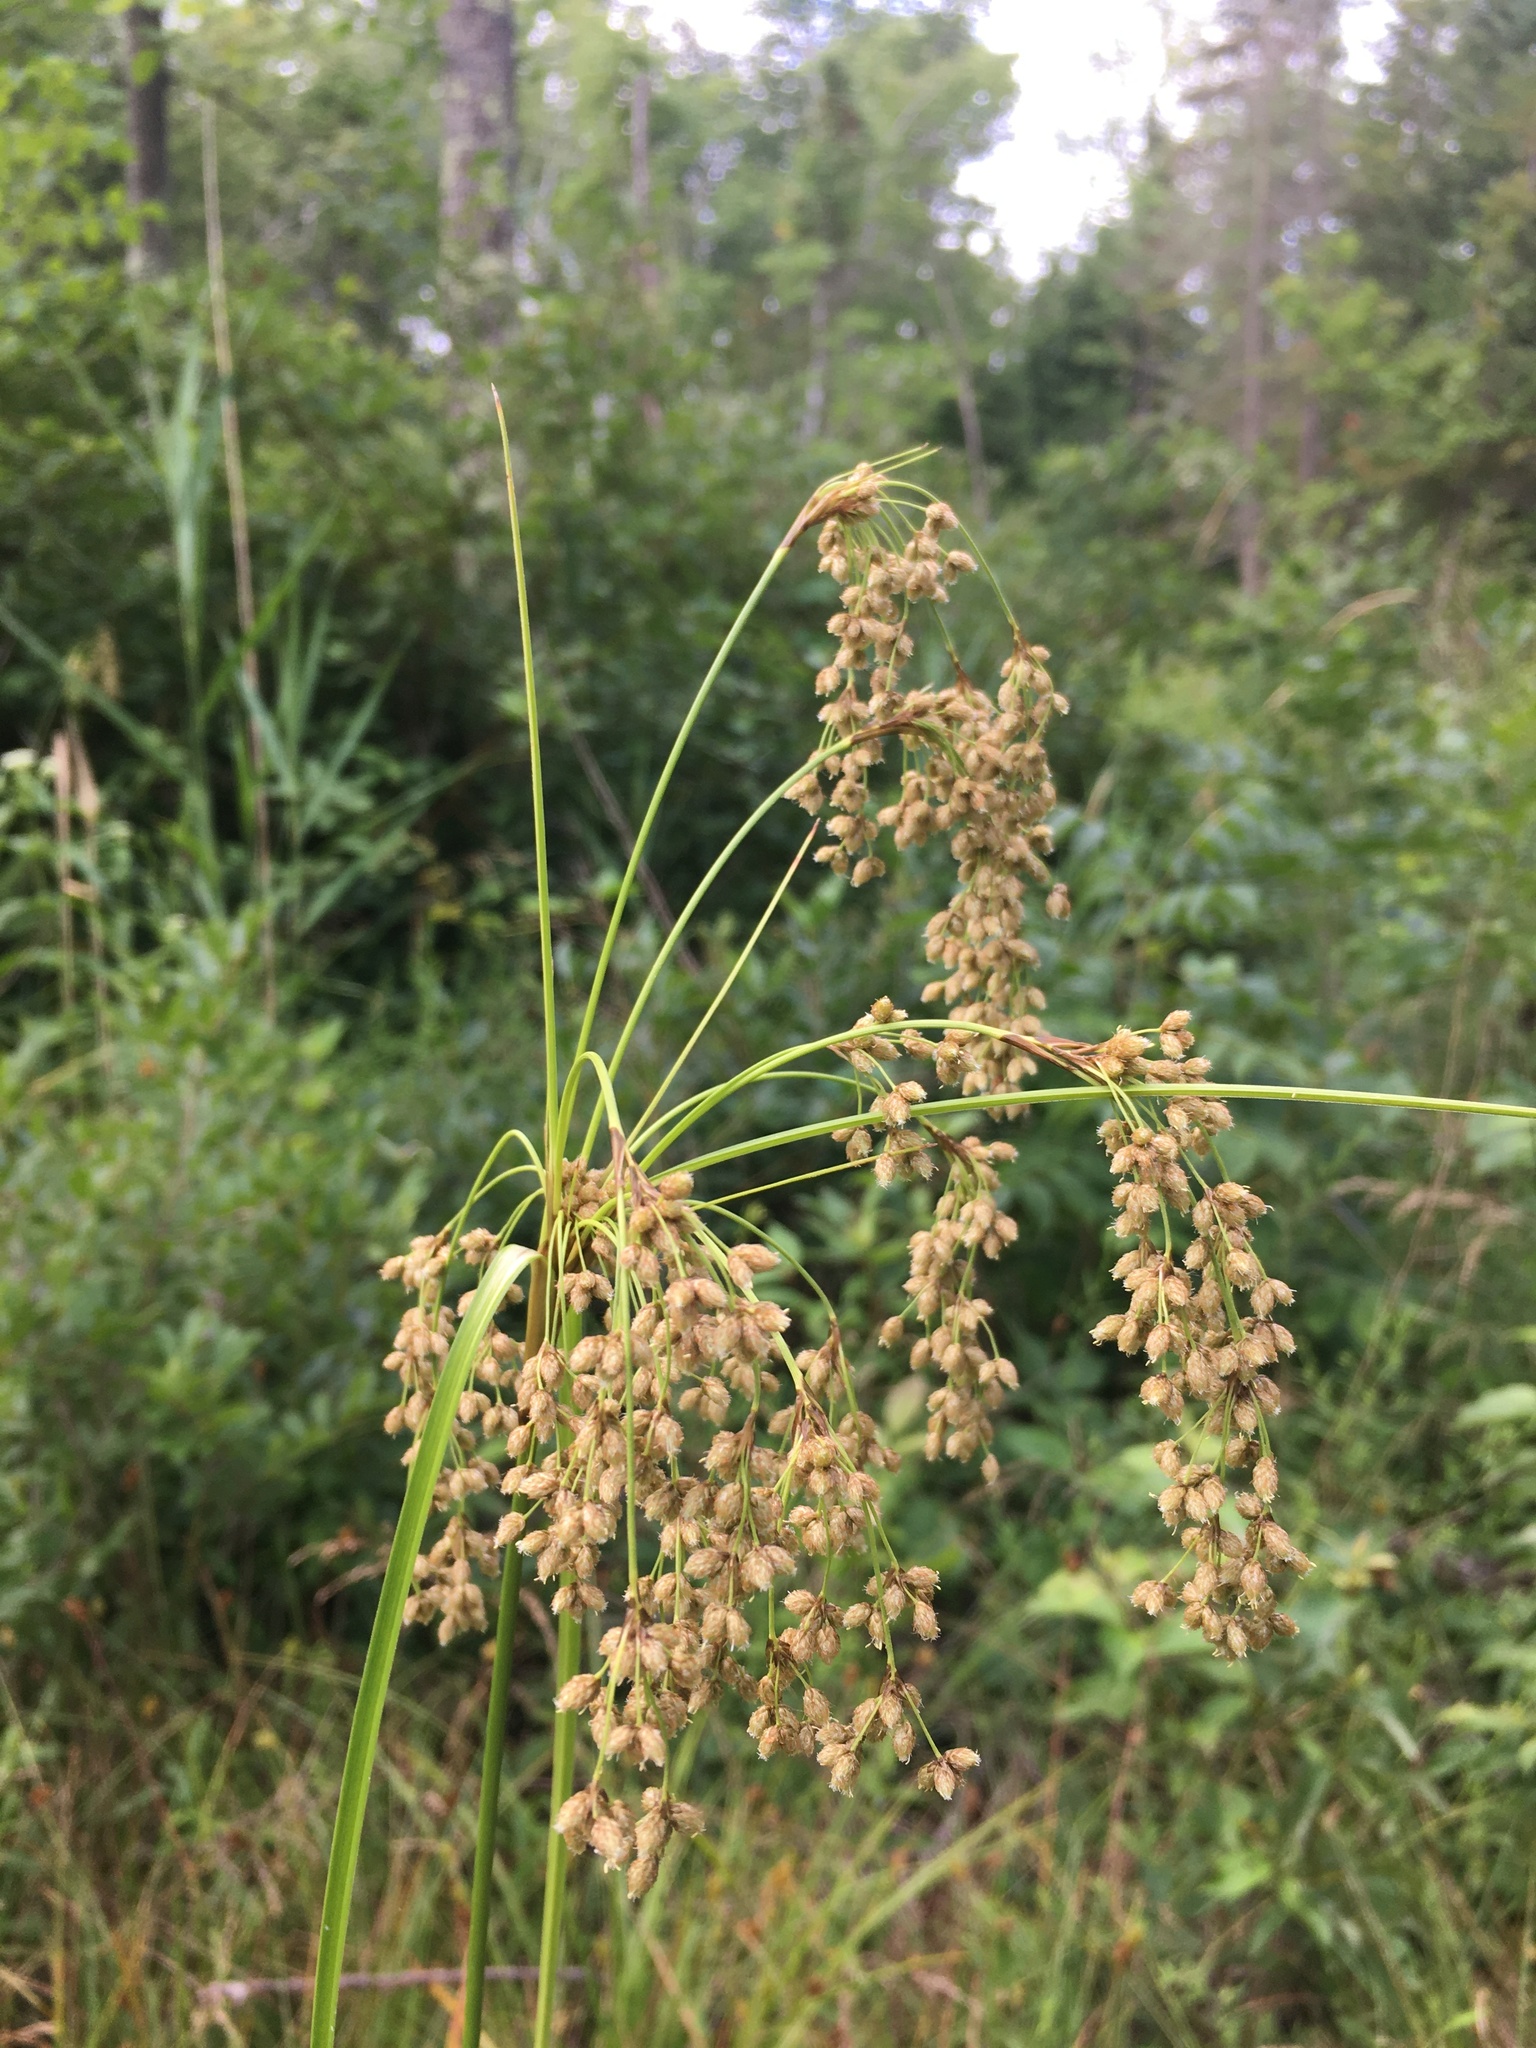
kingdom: Plantae
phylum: Tracheophyta
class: Liliopsida
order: Poales
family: Cyperaceae
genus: Scirpus
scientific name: Scirpus cyperinus
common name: Black-sheathed bulrush
